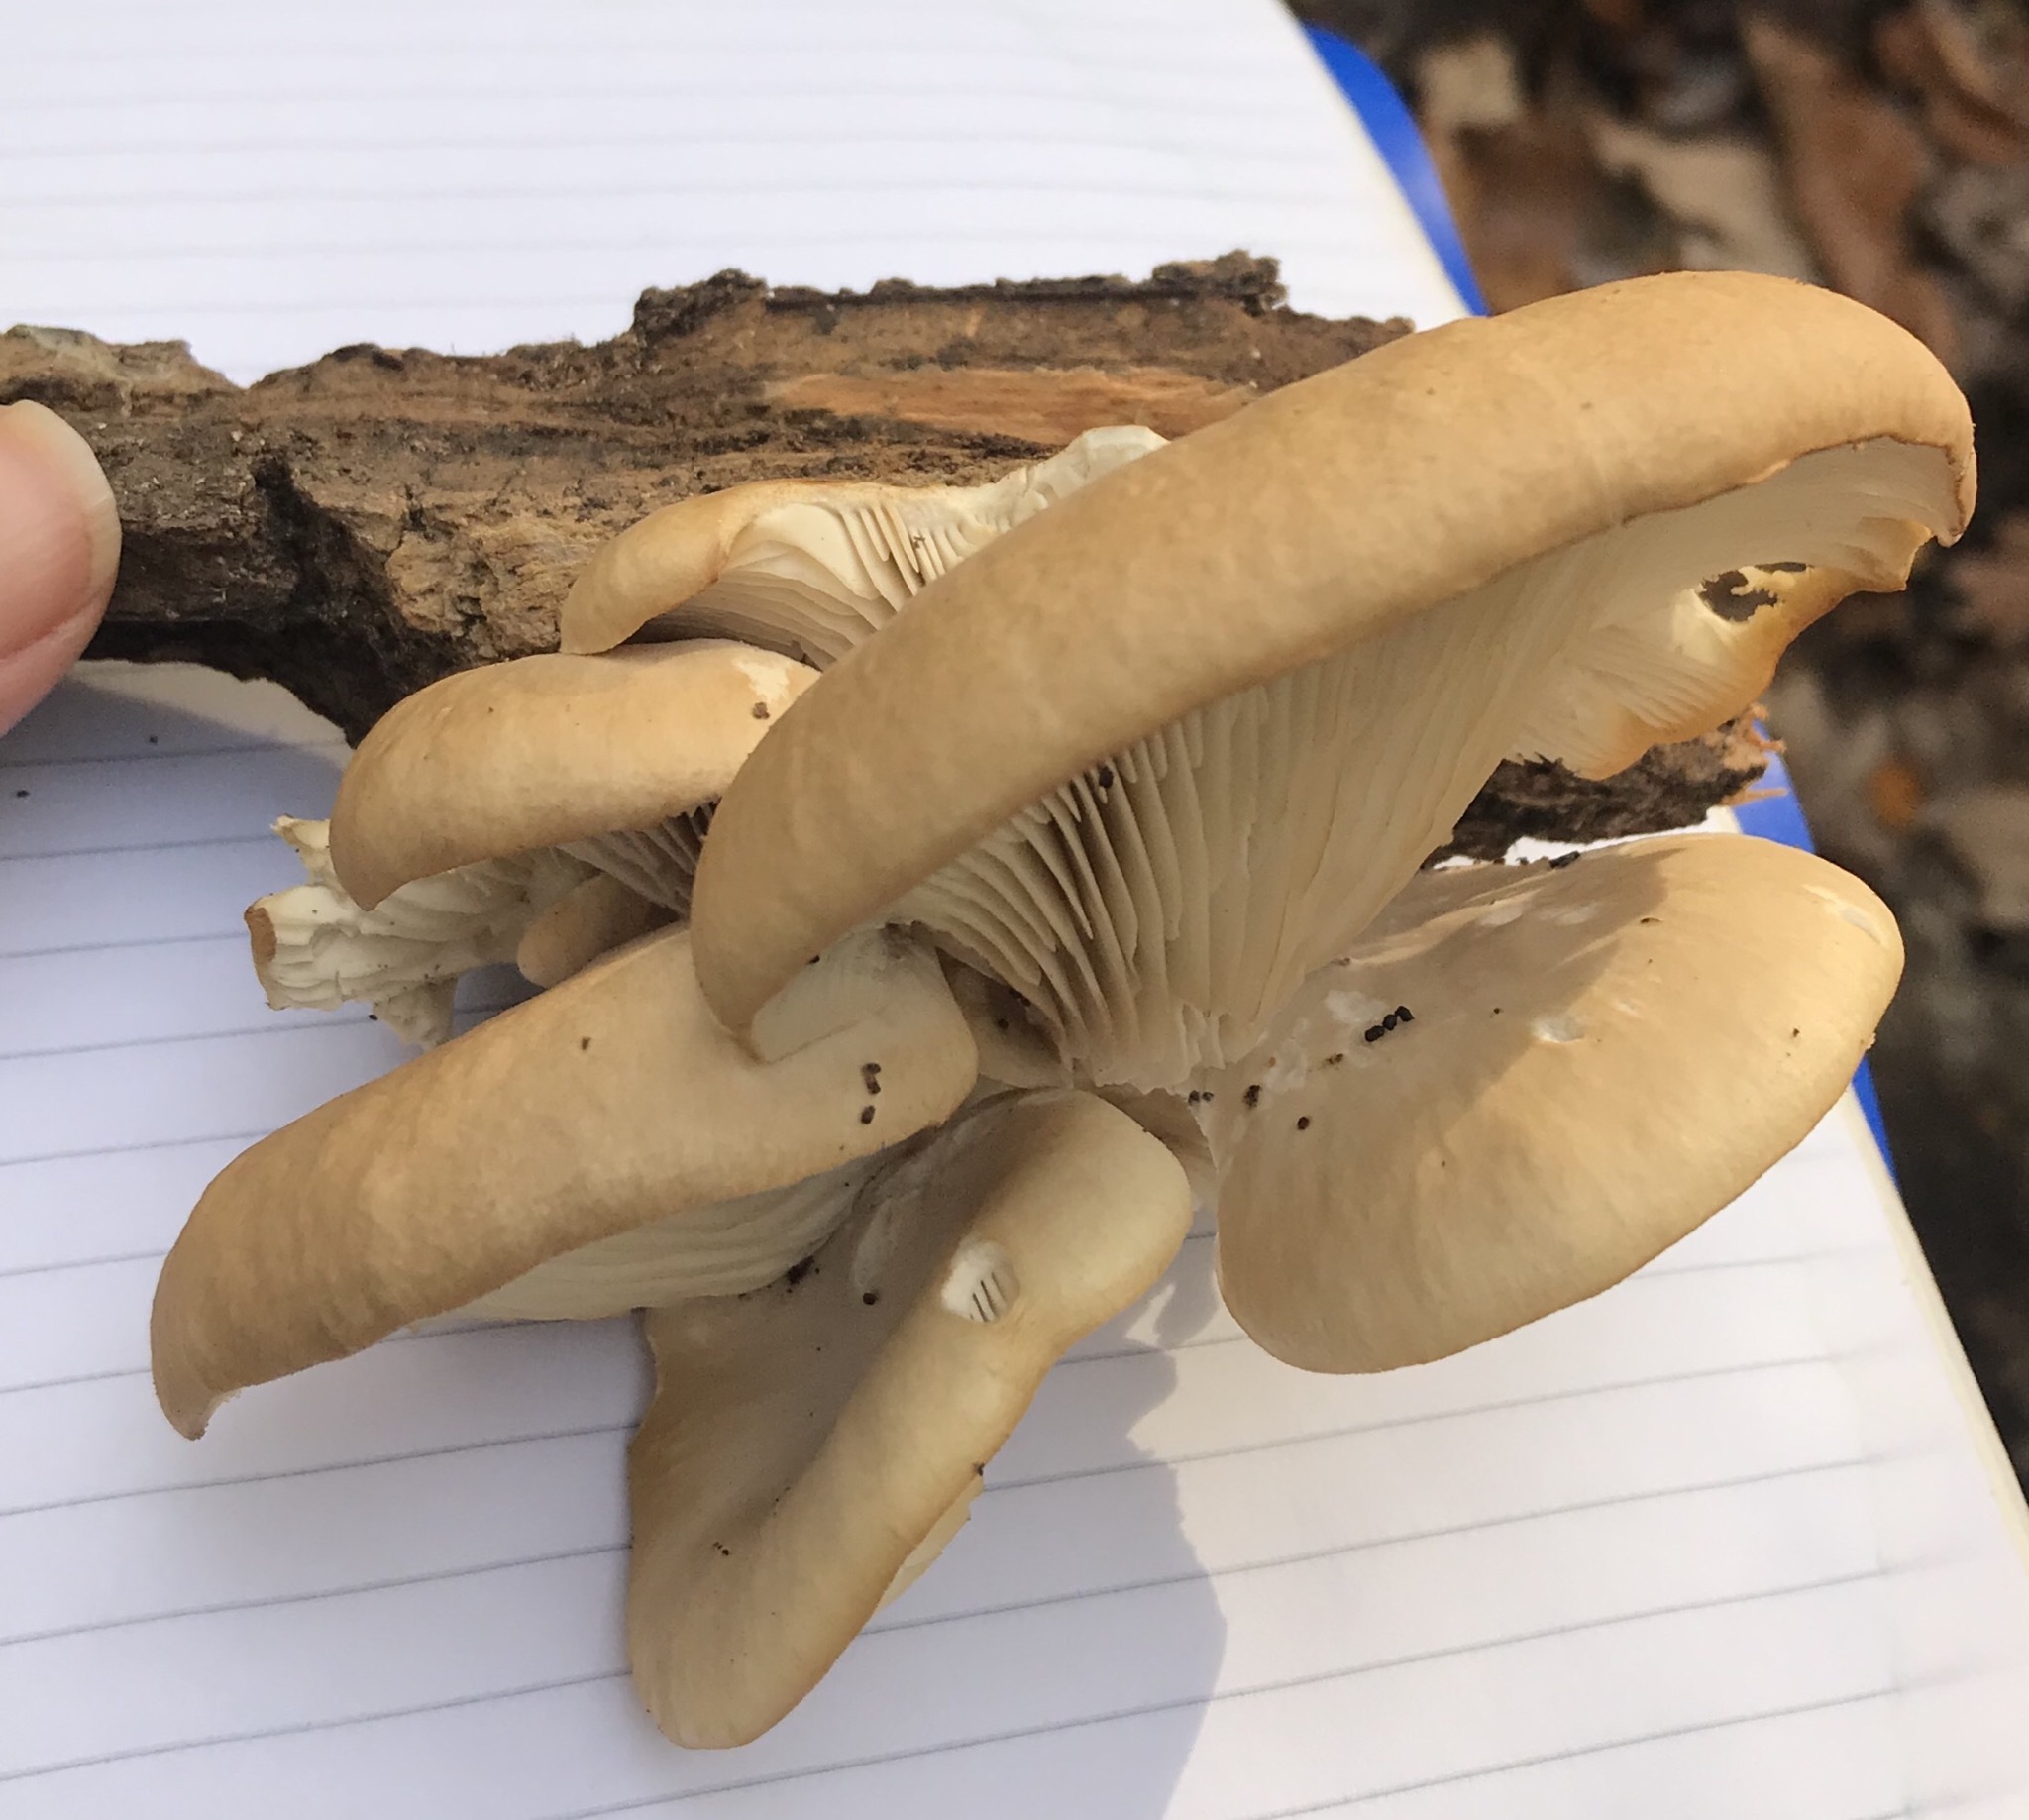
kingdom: Fungi
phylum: Basidiomycota
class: Agaricomycetes
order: Agaricales
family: Pleurotaceae
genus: Pleurotus
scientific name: Pleurotus ostreatus
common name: Oyster mushroom
